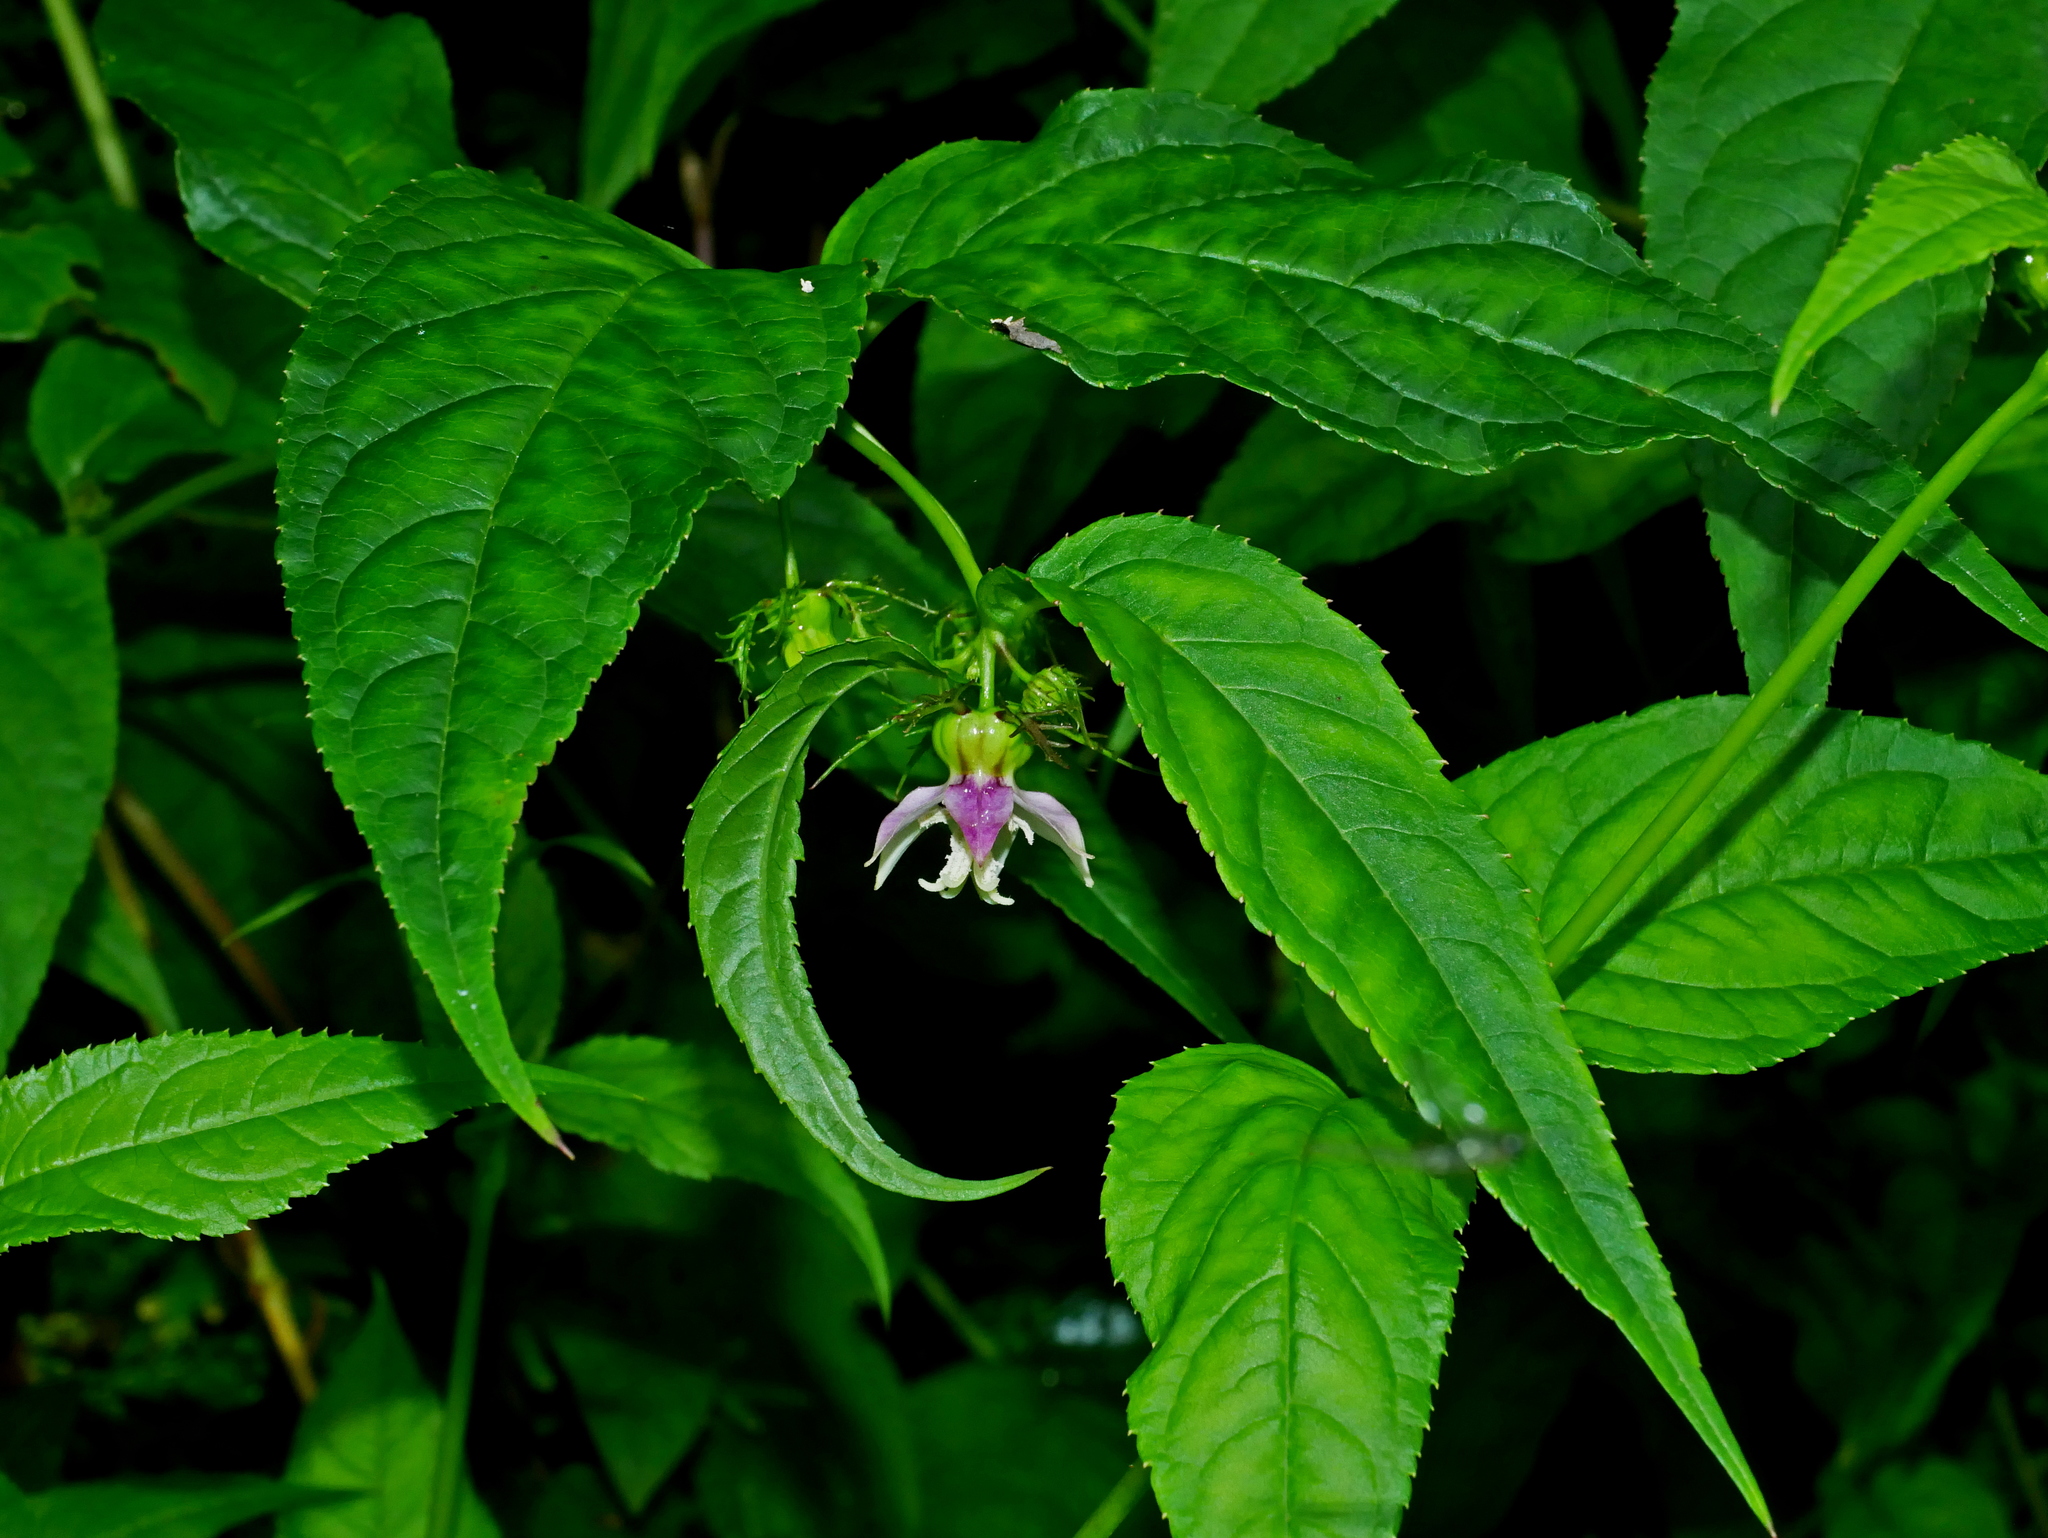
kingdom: Plantae
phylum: Tracheophyta
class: Magnoliopsida
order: Asterales
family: Campanulaceae
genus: Cyclocodon
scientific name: Cyclocodon lancifolius
